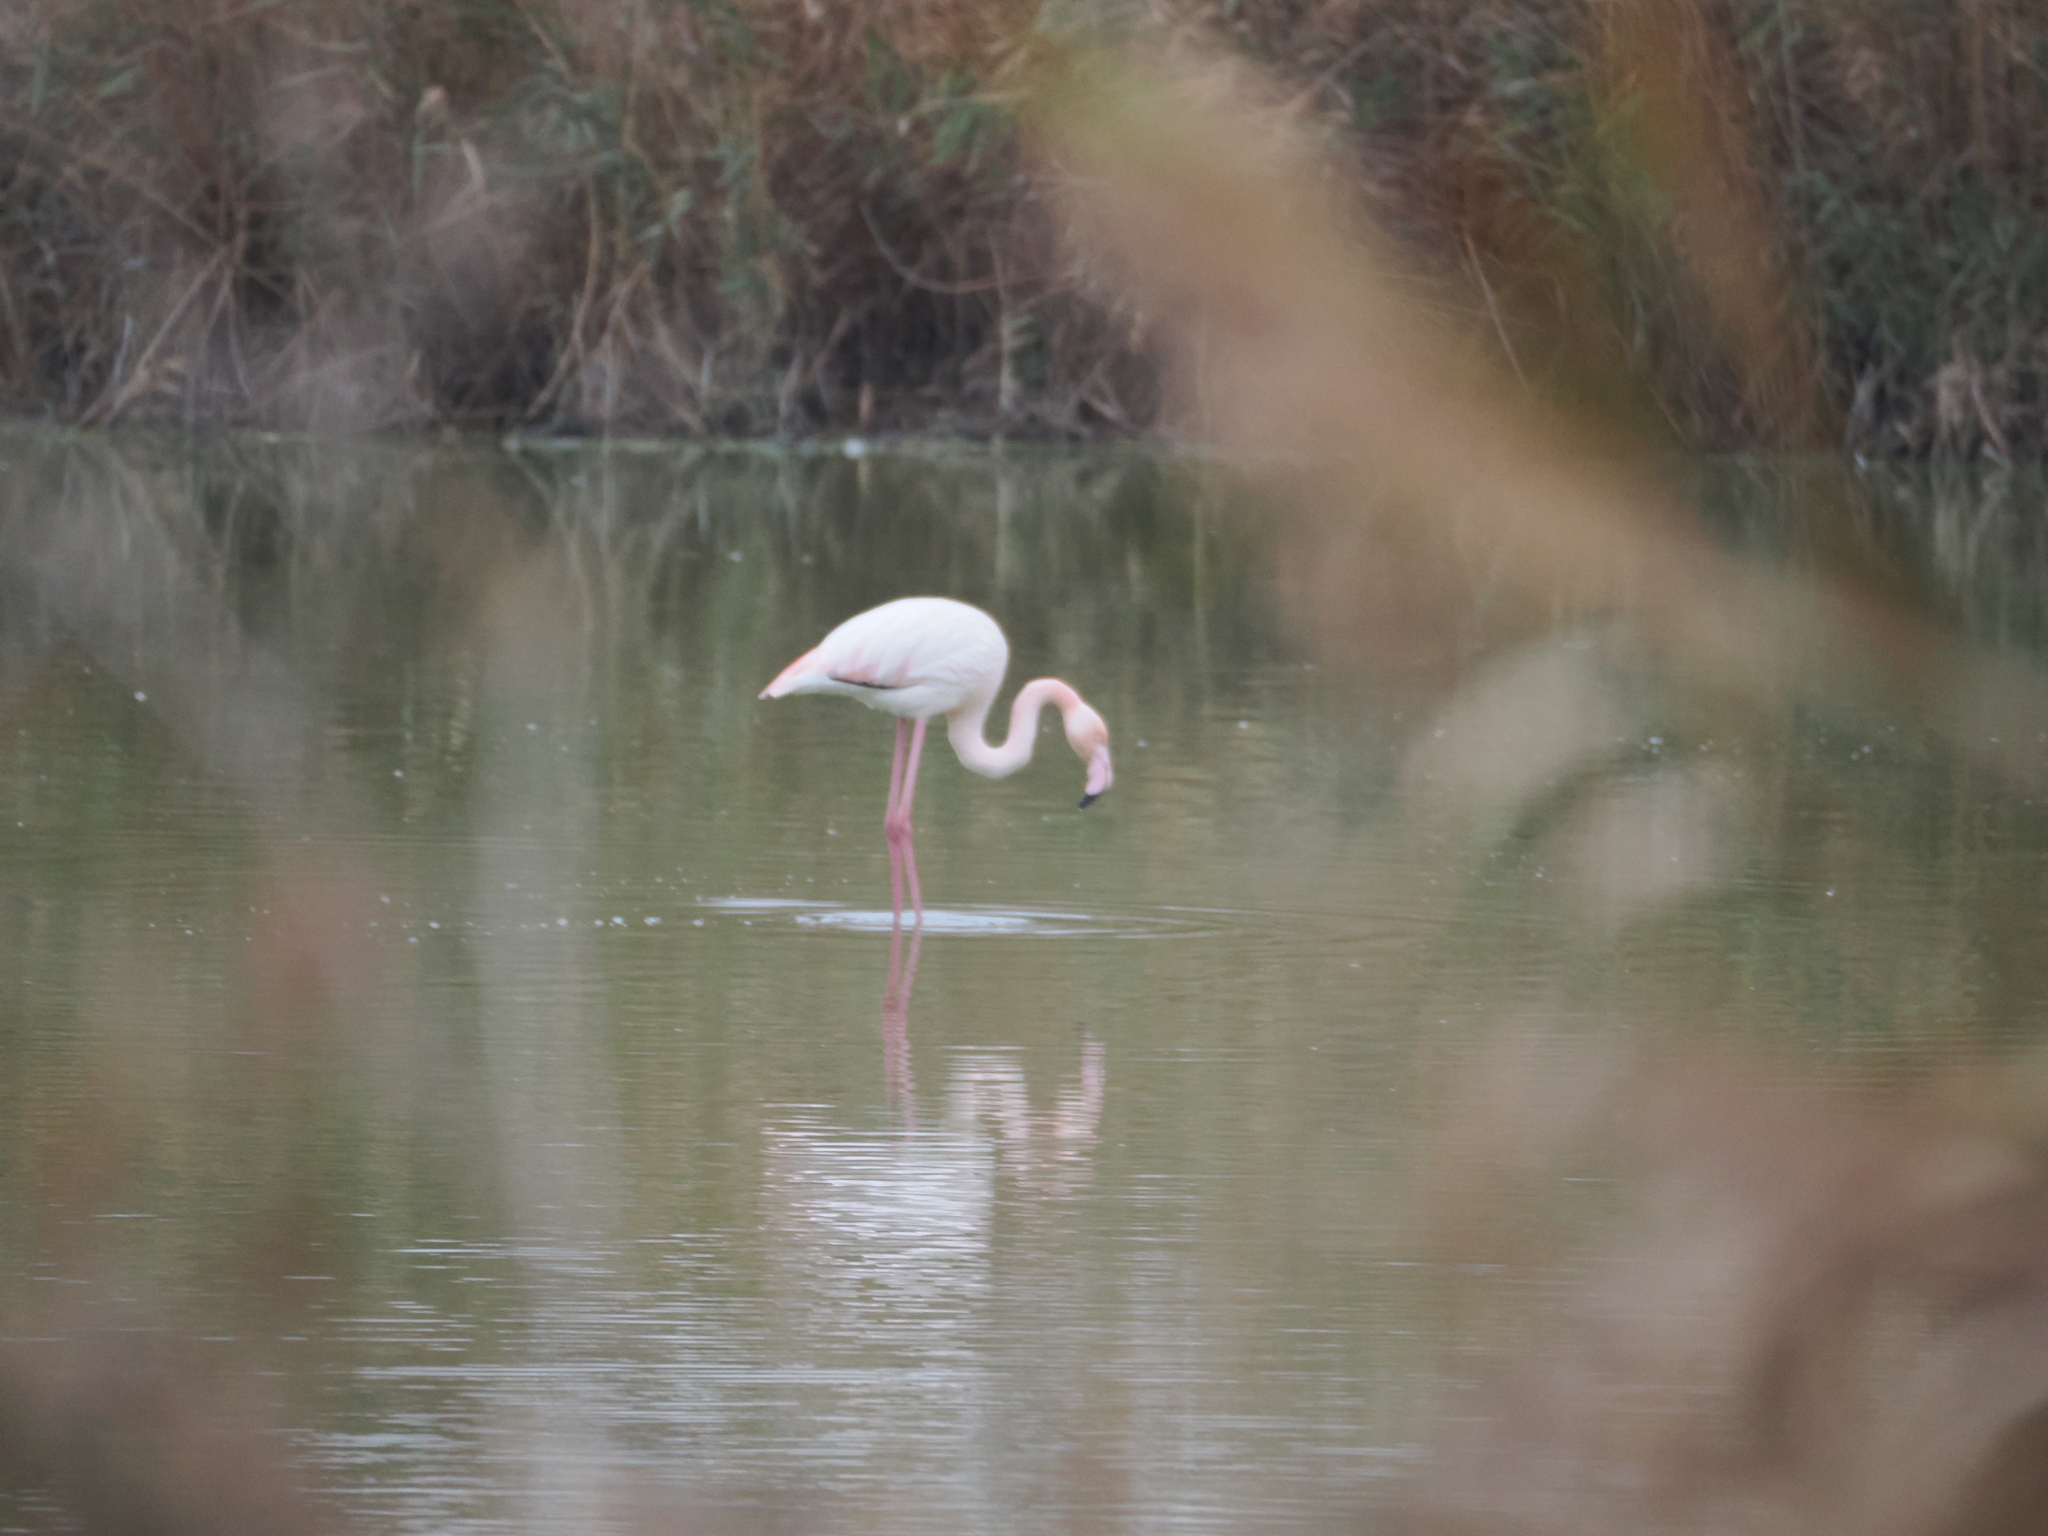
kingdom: Animalia
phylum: Chordata
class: Aves
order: Phoenicopteriformes
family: Phoenicopteridae
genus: Phoenicopterus
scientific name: Phoenicopterus roseus
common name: Greater flamingo
